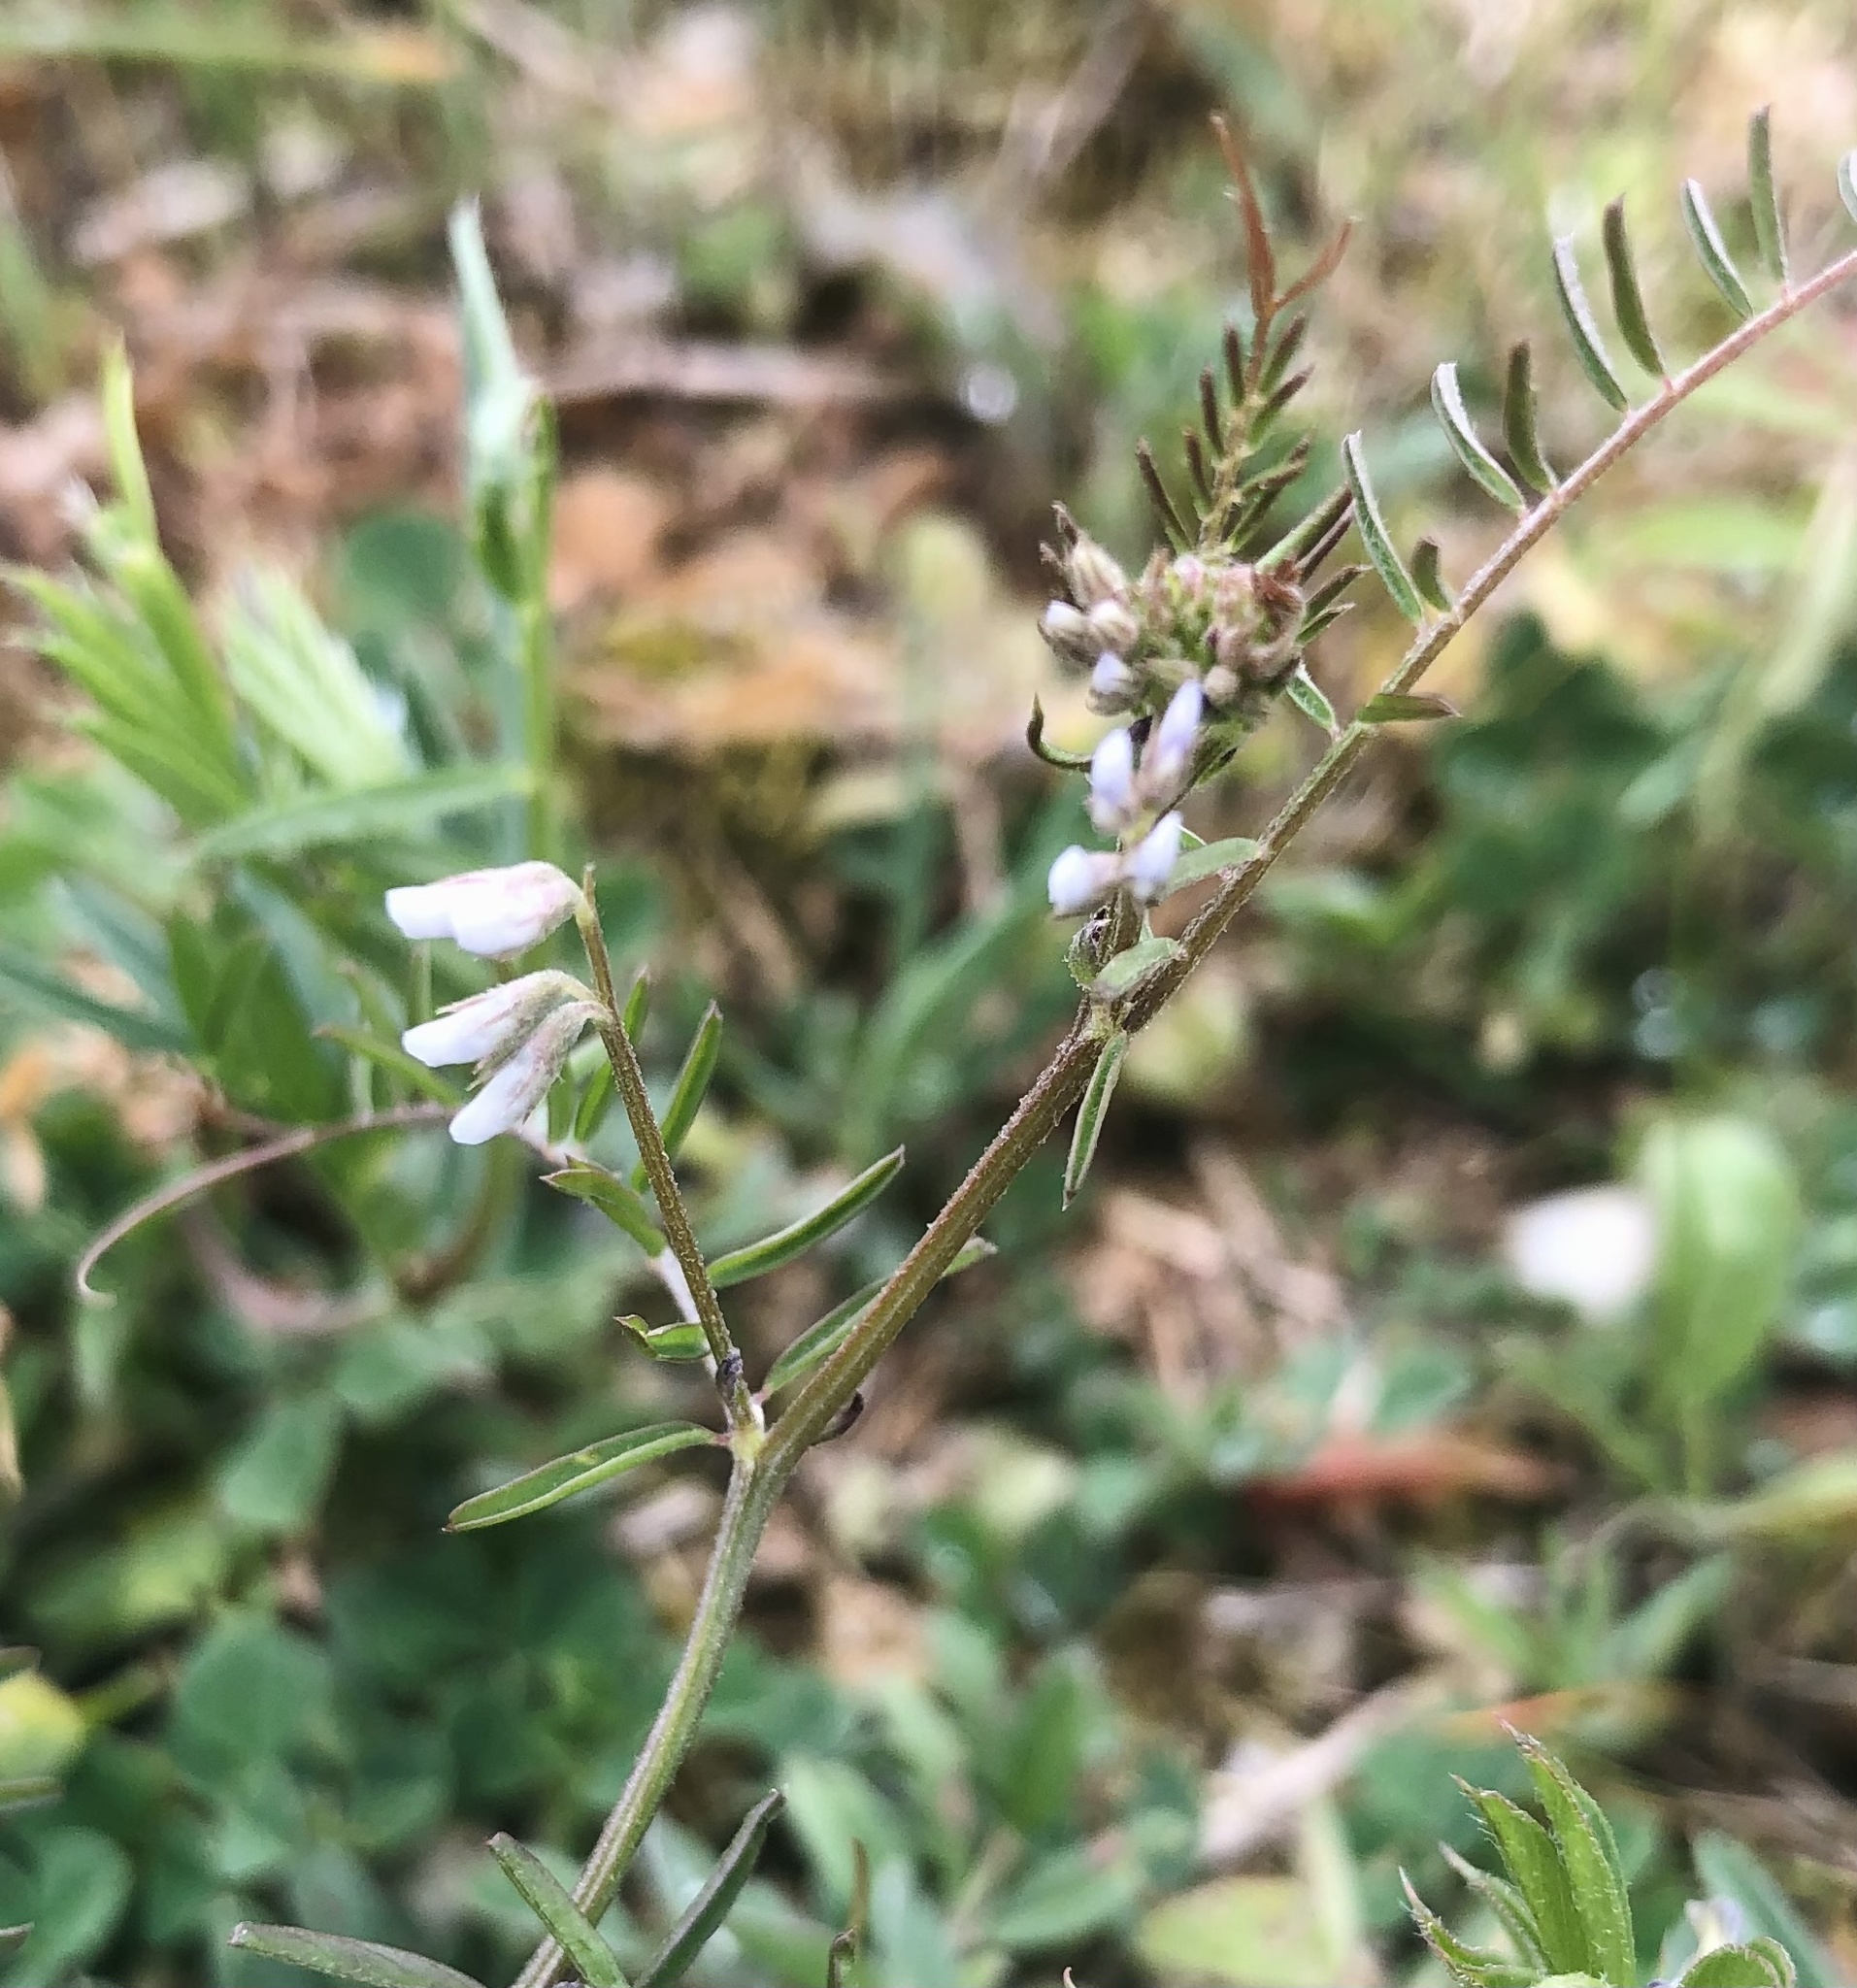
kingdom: Plantae
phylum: Tracheophyta
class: Magnoliopsida
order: Fabales
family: Fabaceae
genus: Vicia
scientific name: Vicia hirsuta
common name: Tiny vetch
